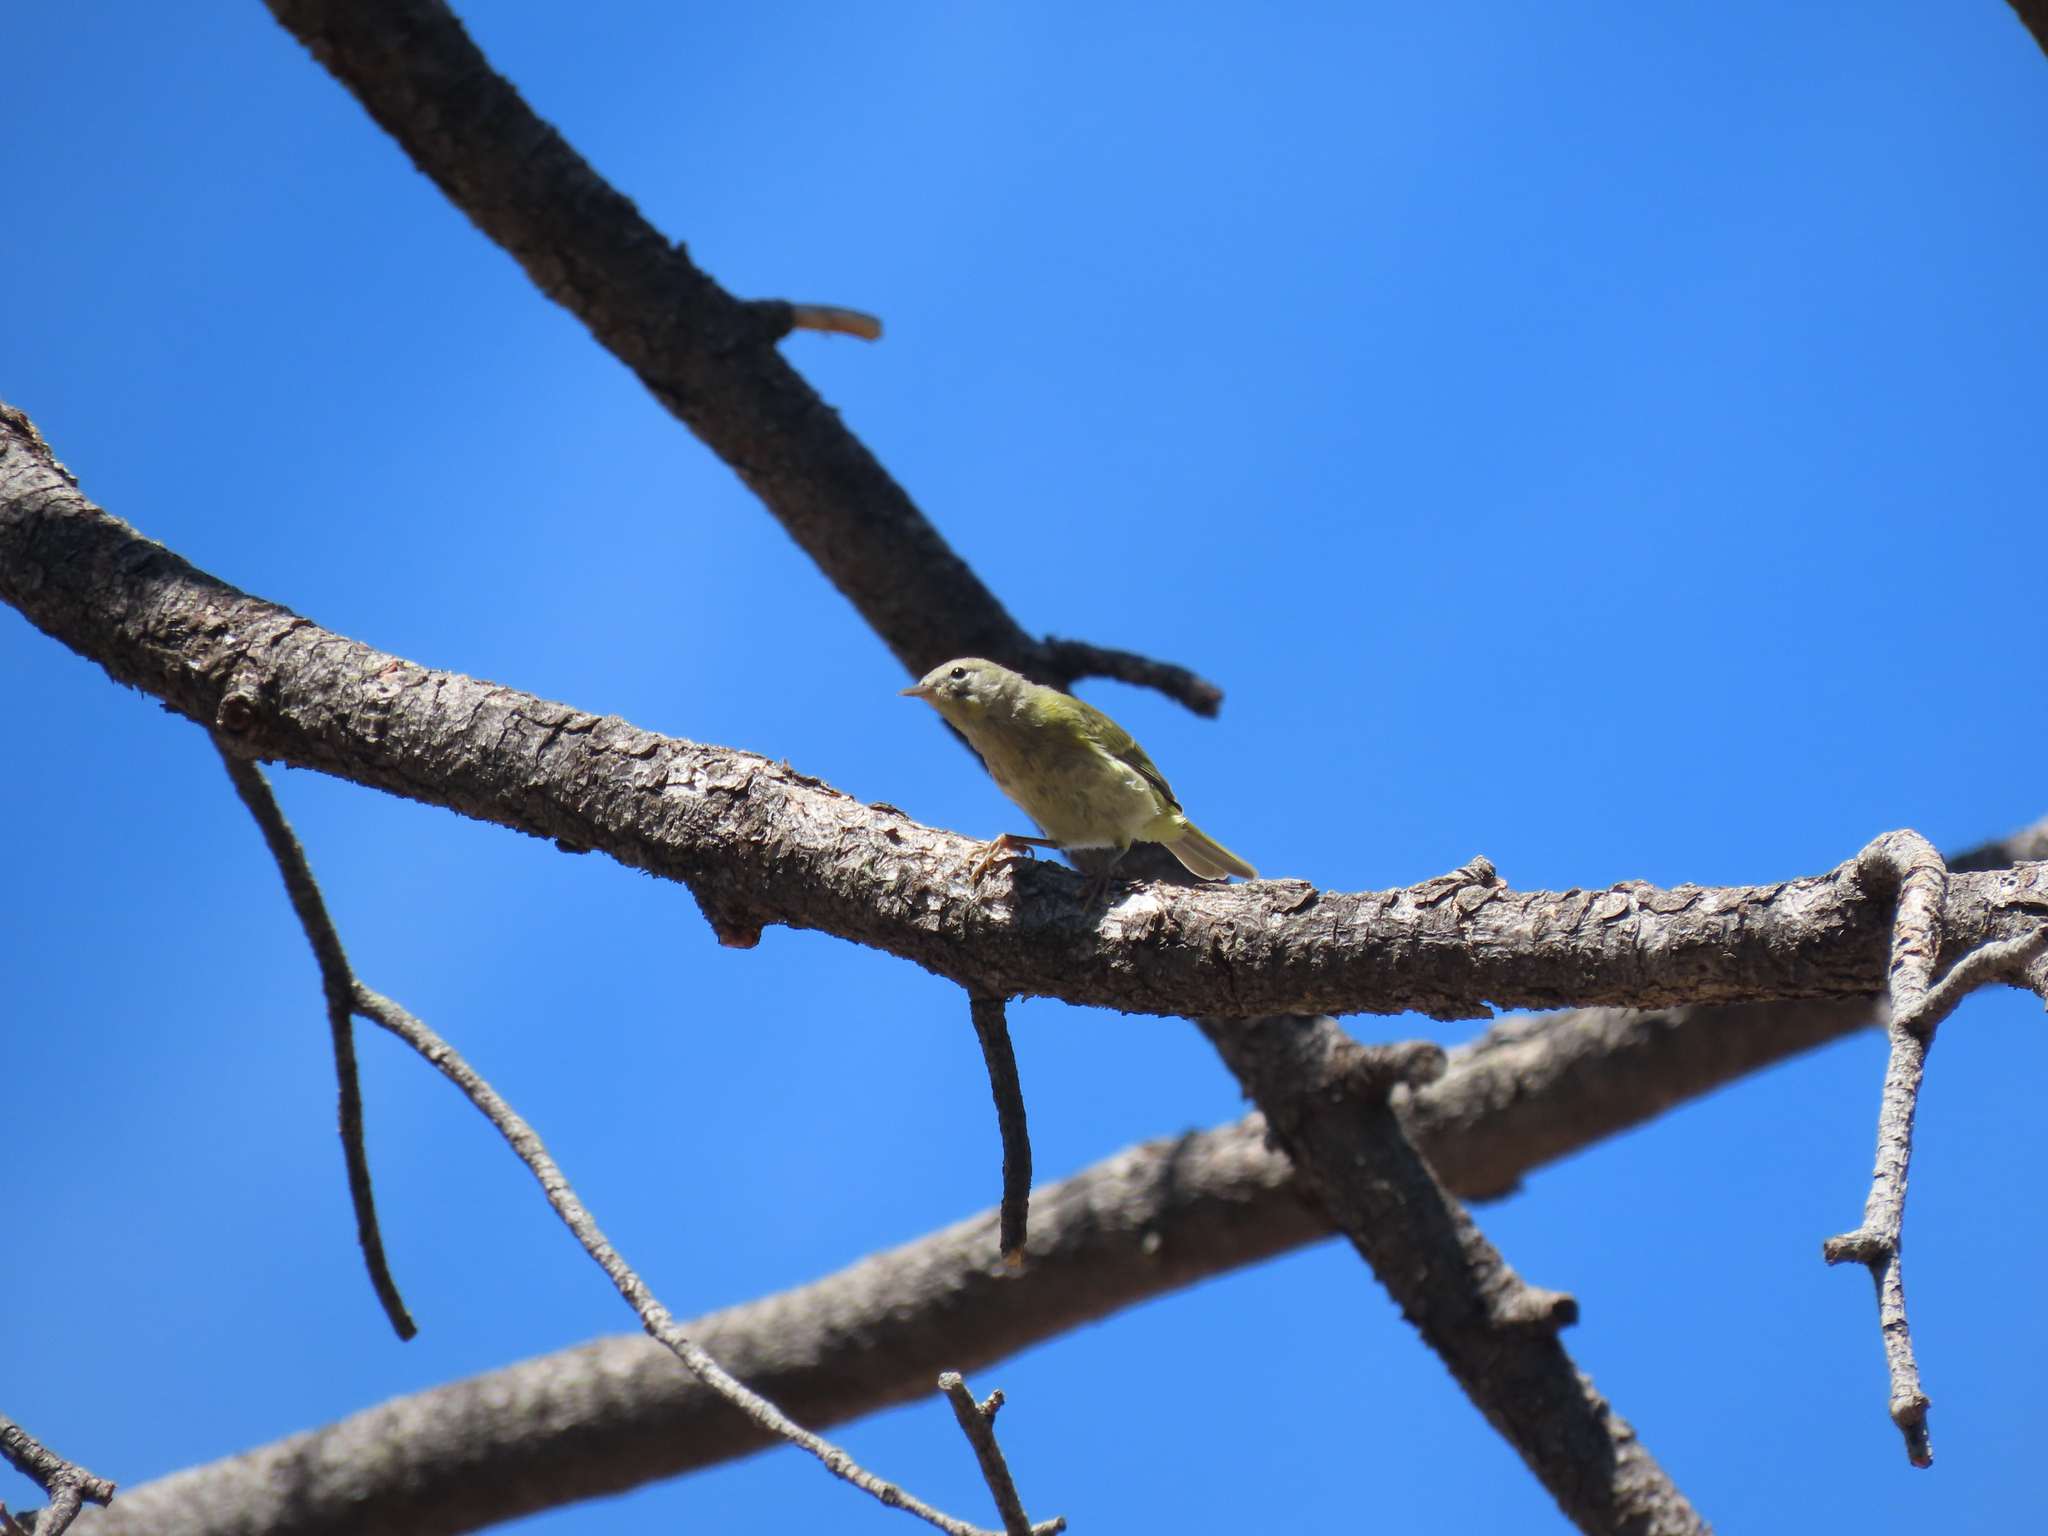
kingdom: Animalia
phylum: Chordata
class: Aves
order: Passeriformes
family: Parulidae
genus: Leiothlypis
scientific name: Leiothlypis celata
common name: Orange-crowned warbler
